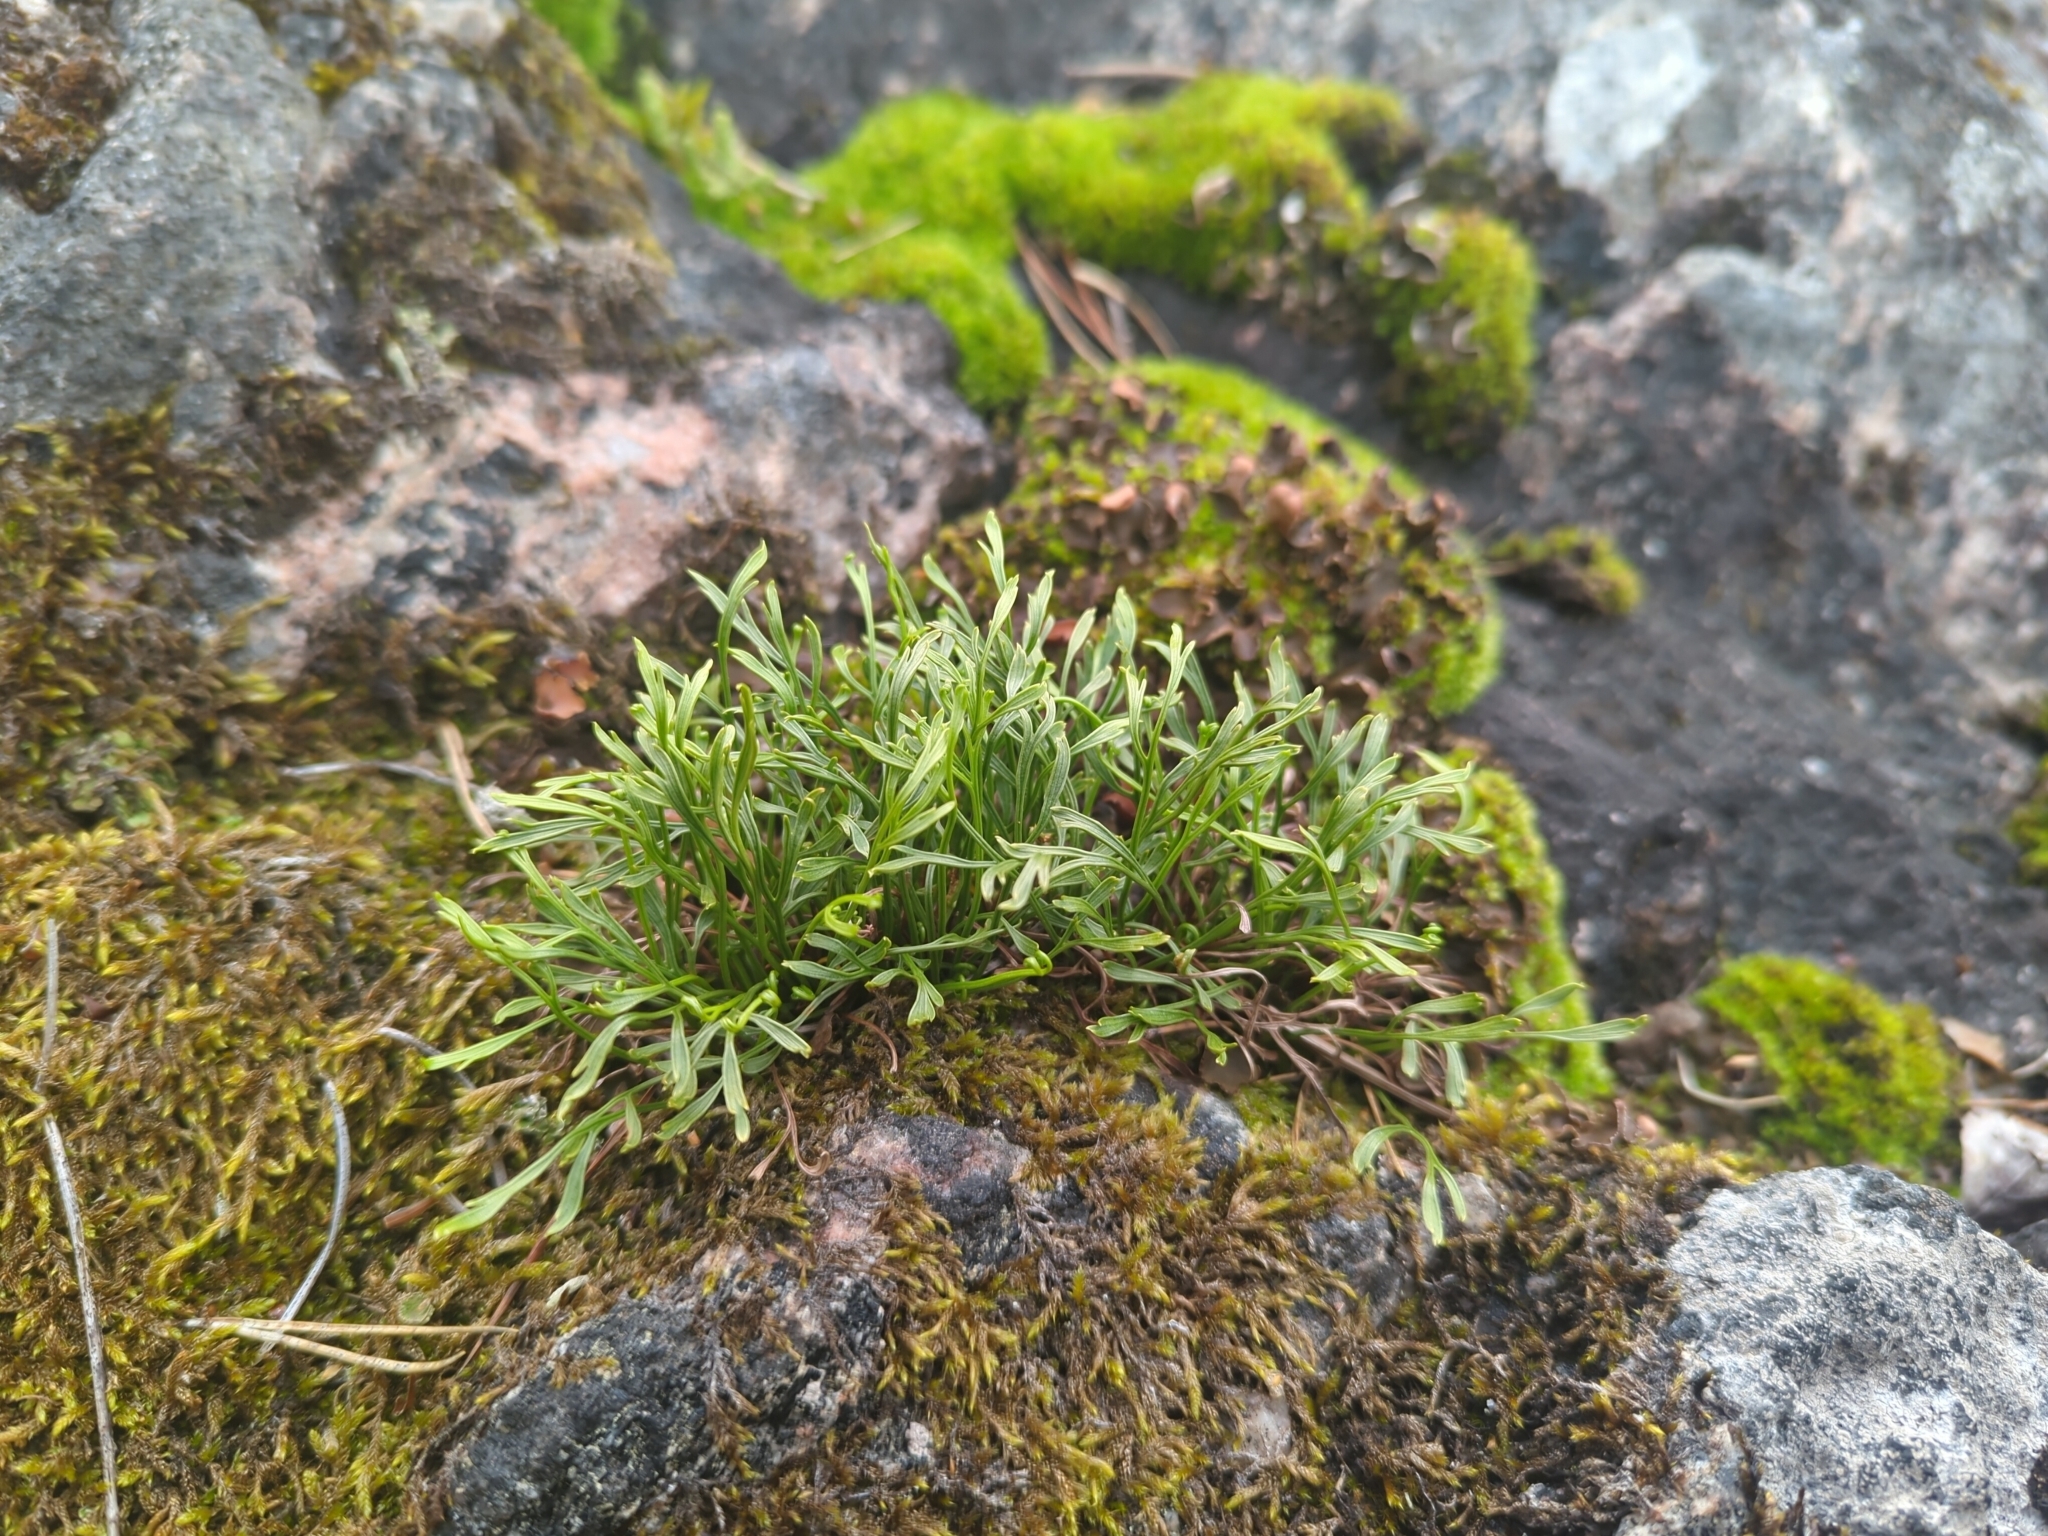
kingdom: Plantae
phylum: Tracheophyta
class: Polypodiopsida
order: Polypodiales
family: Aspleniaceae
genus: Asplenium
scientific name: Asplenium septentrionale
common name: Forked spleenwort
